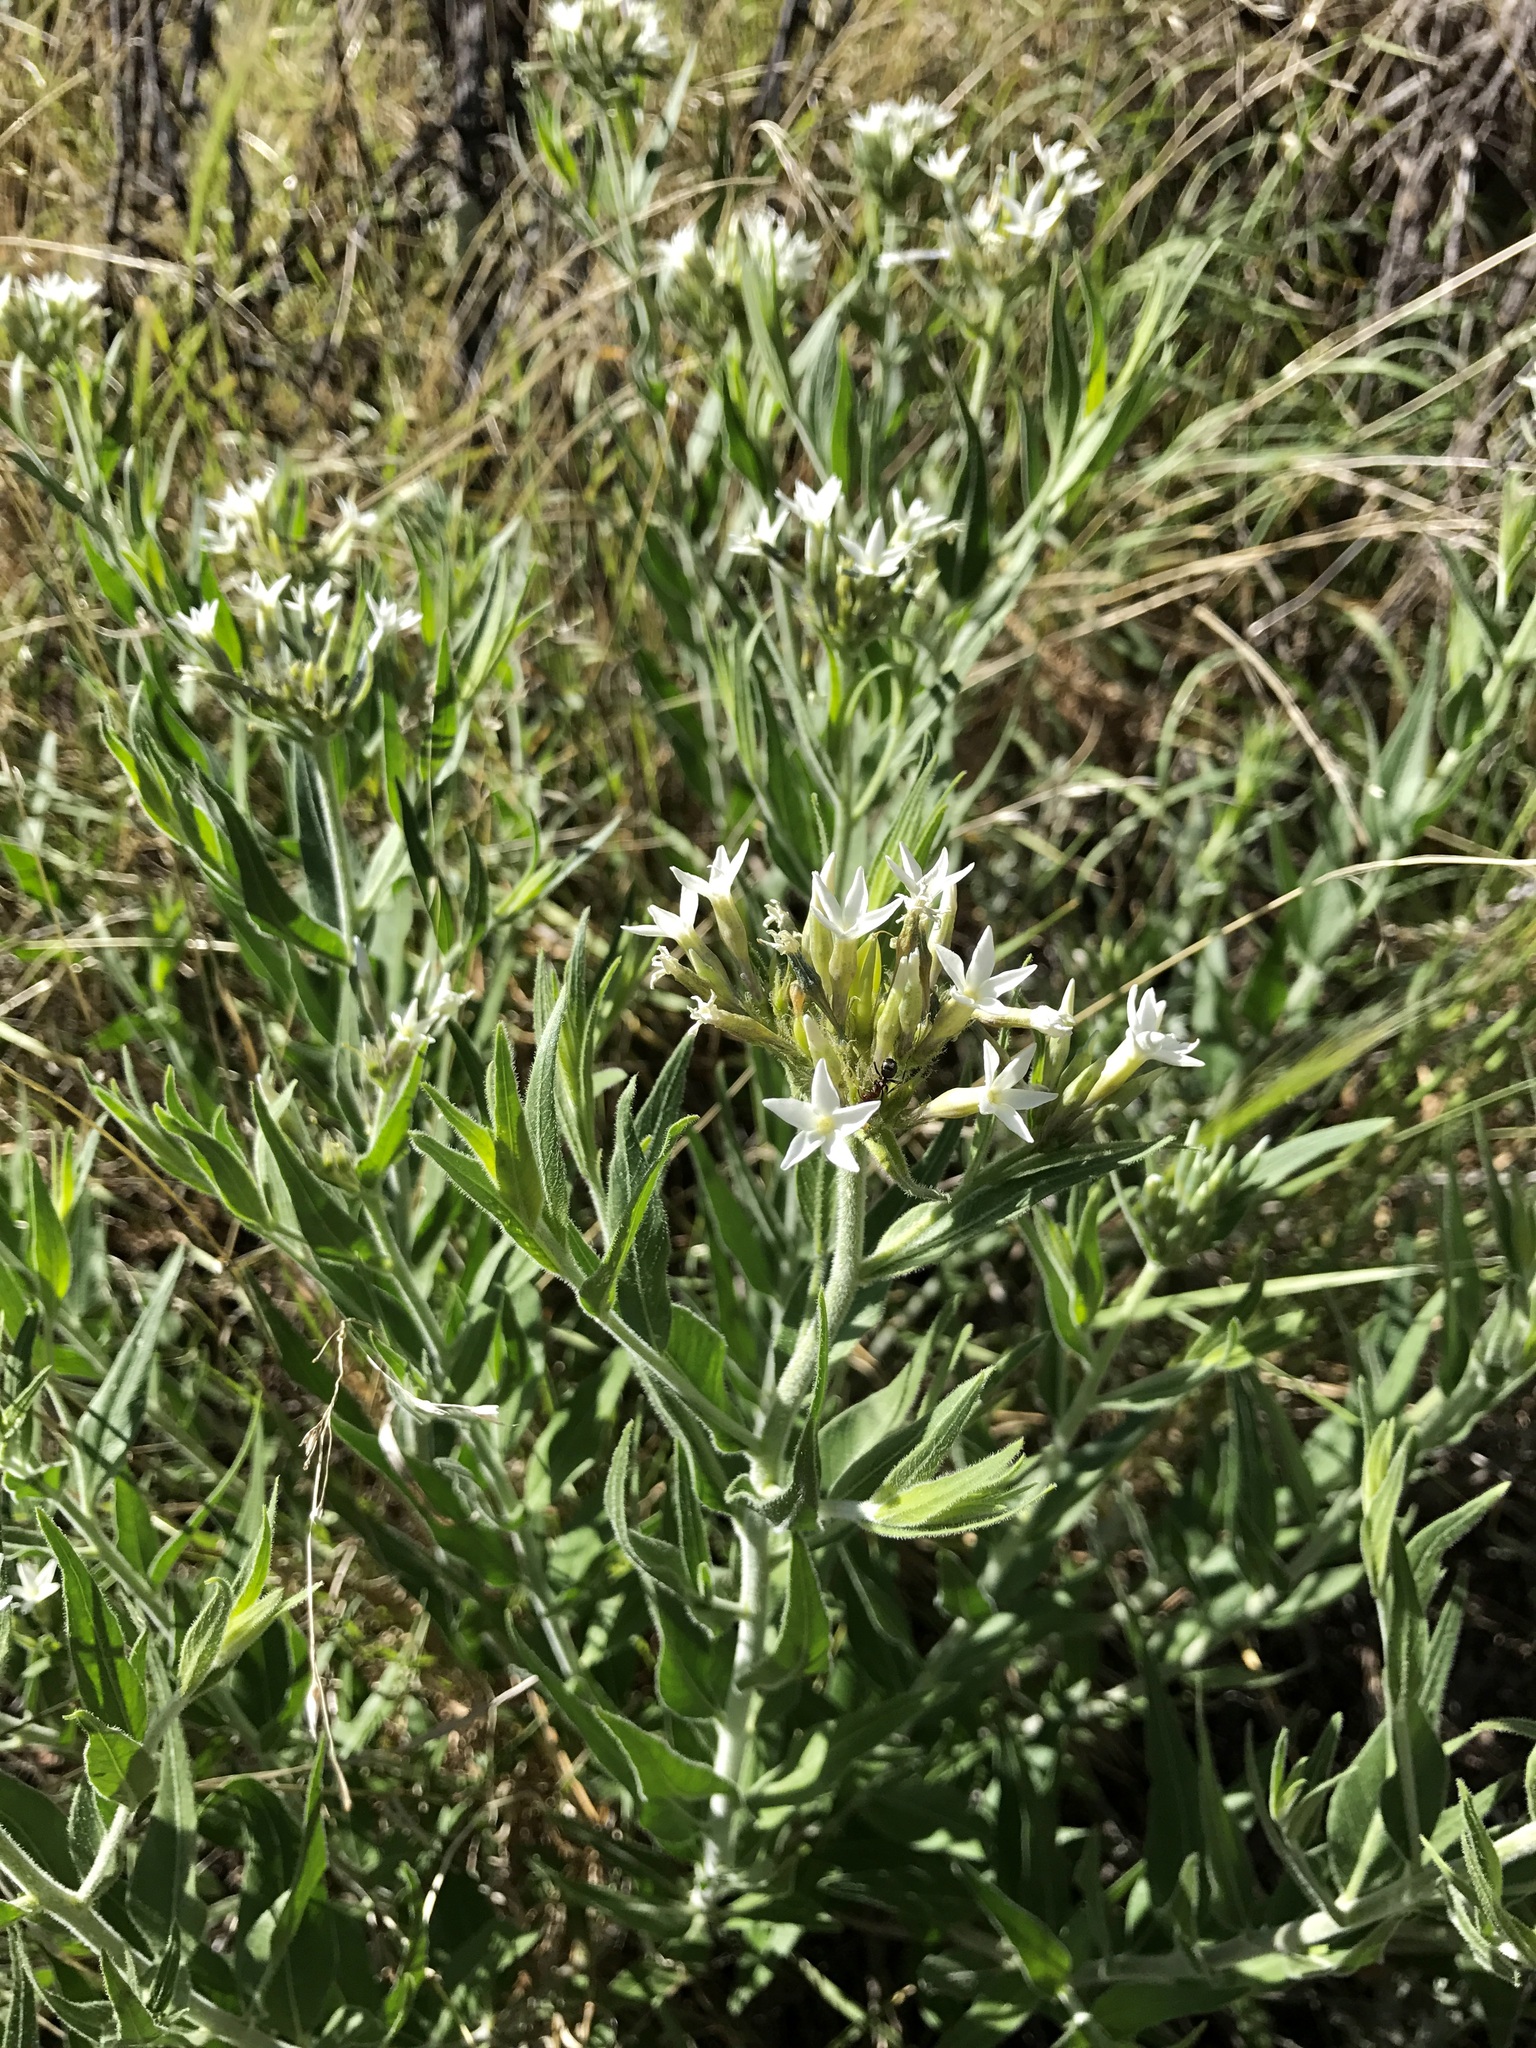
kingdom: Plantae
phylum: Tracheophyta
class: Magnoliopsida
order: Gentianales
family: Apocynaceae
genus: Amsonia
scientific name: Amsonia palmeri
